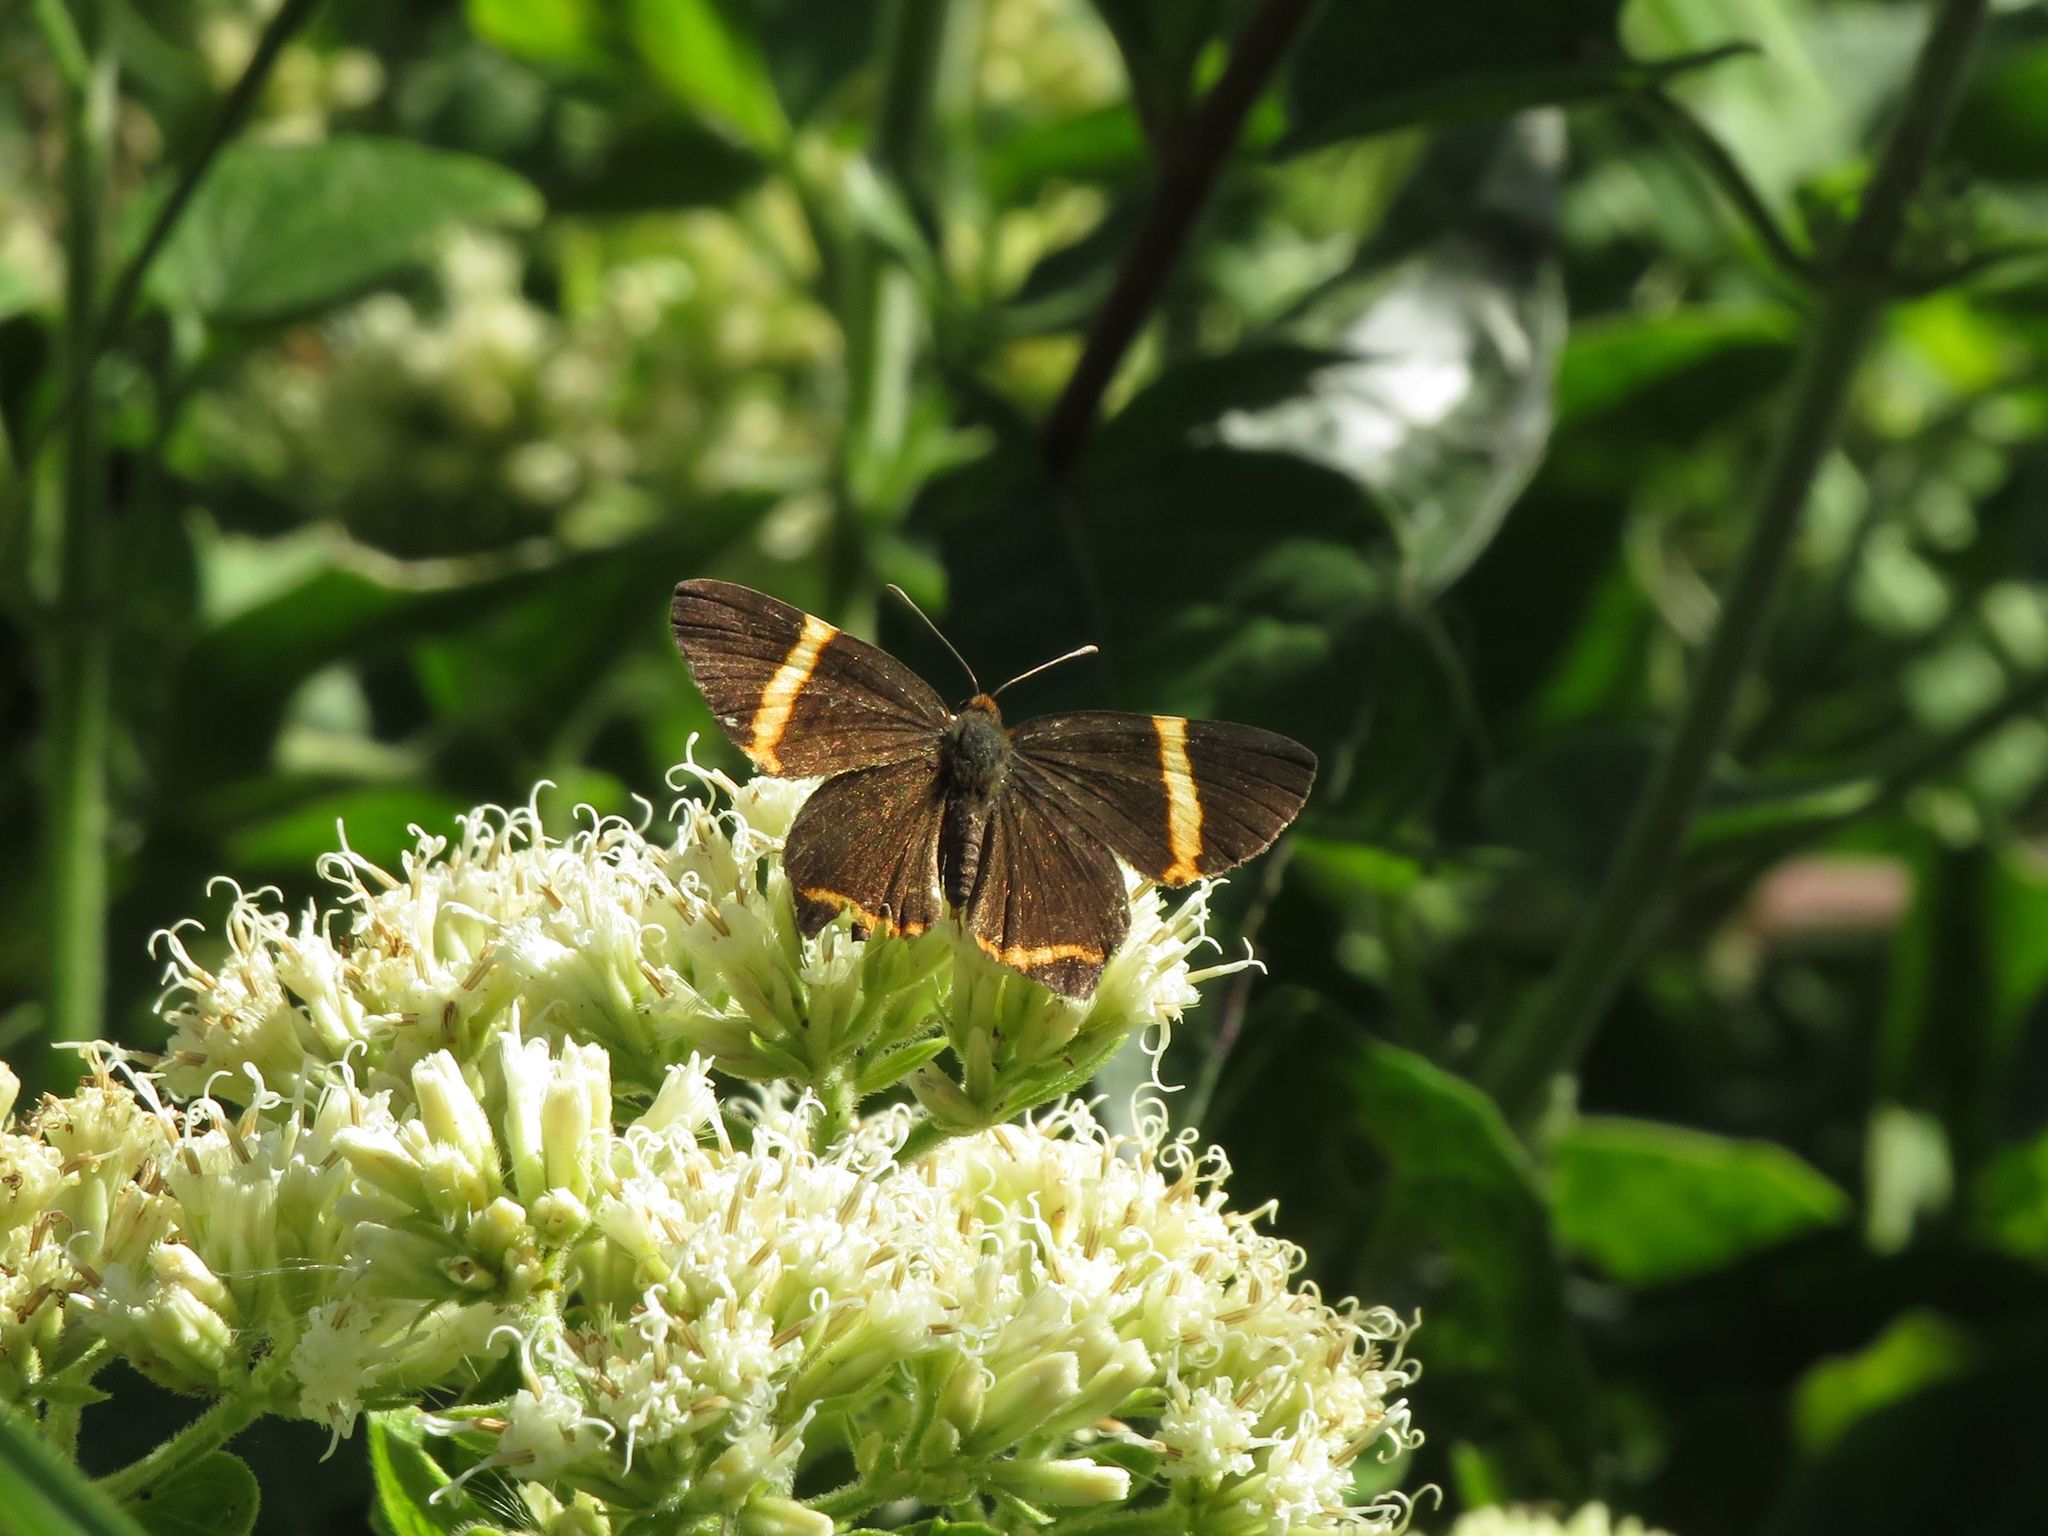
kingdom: Animalia
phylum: Arthropoda
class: Insecta
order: Lepidoptera
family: Riodinidae
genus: Riodina
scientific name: Riodina lysippoides
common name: Little dancer metalmark
